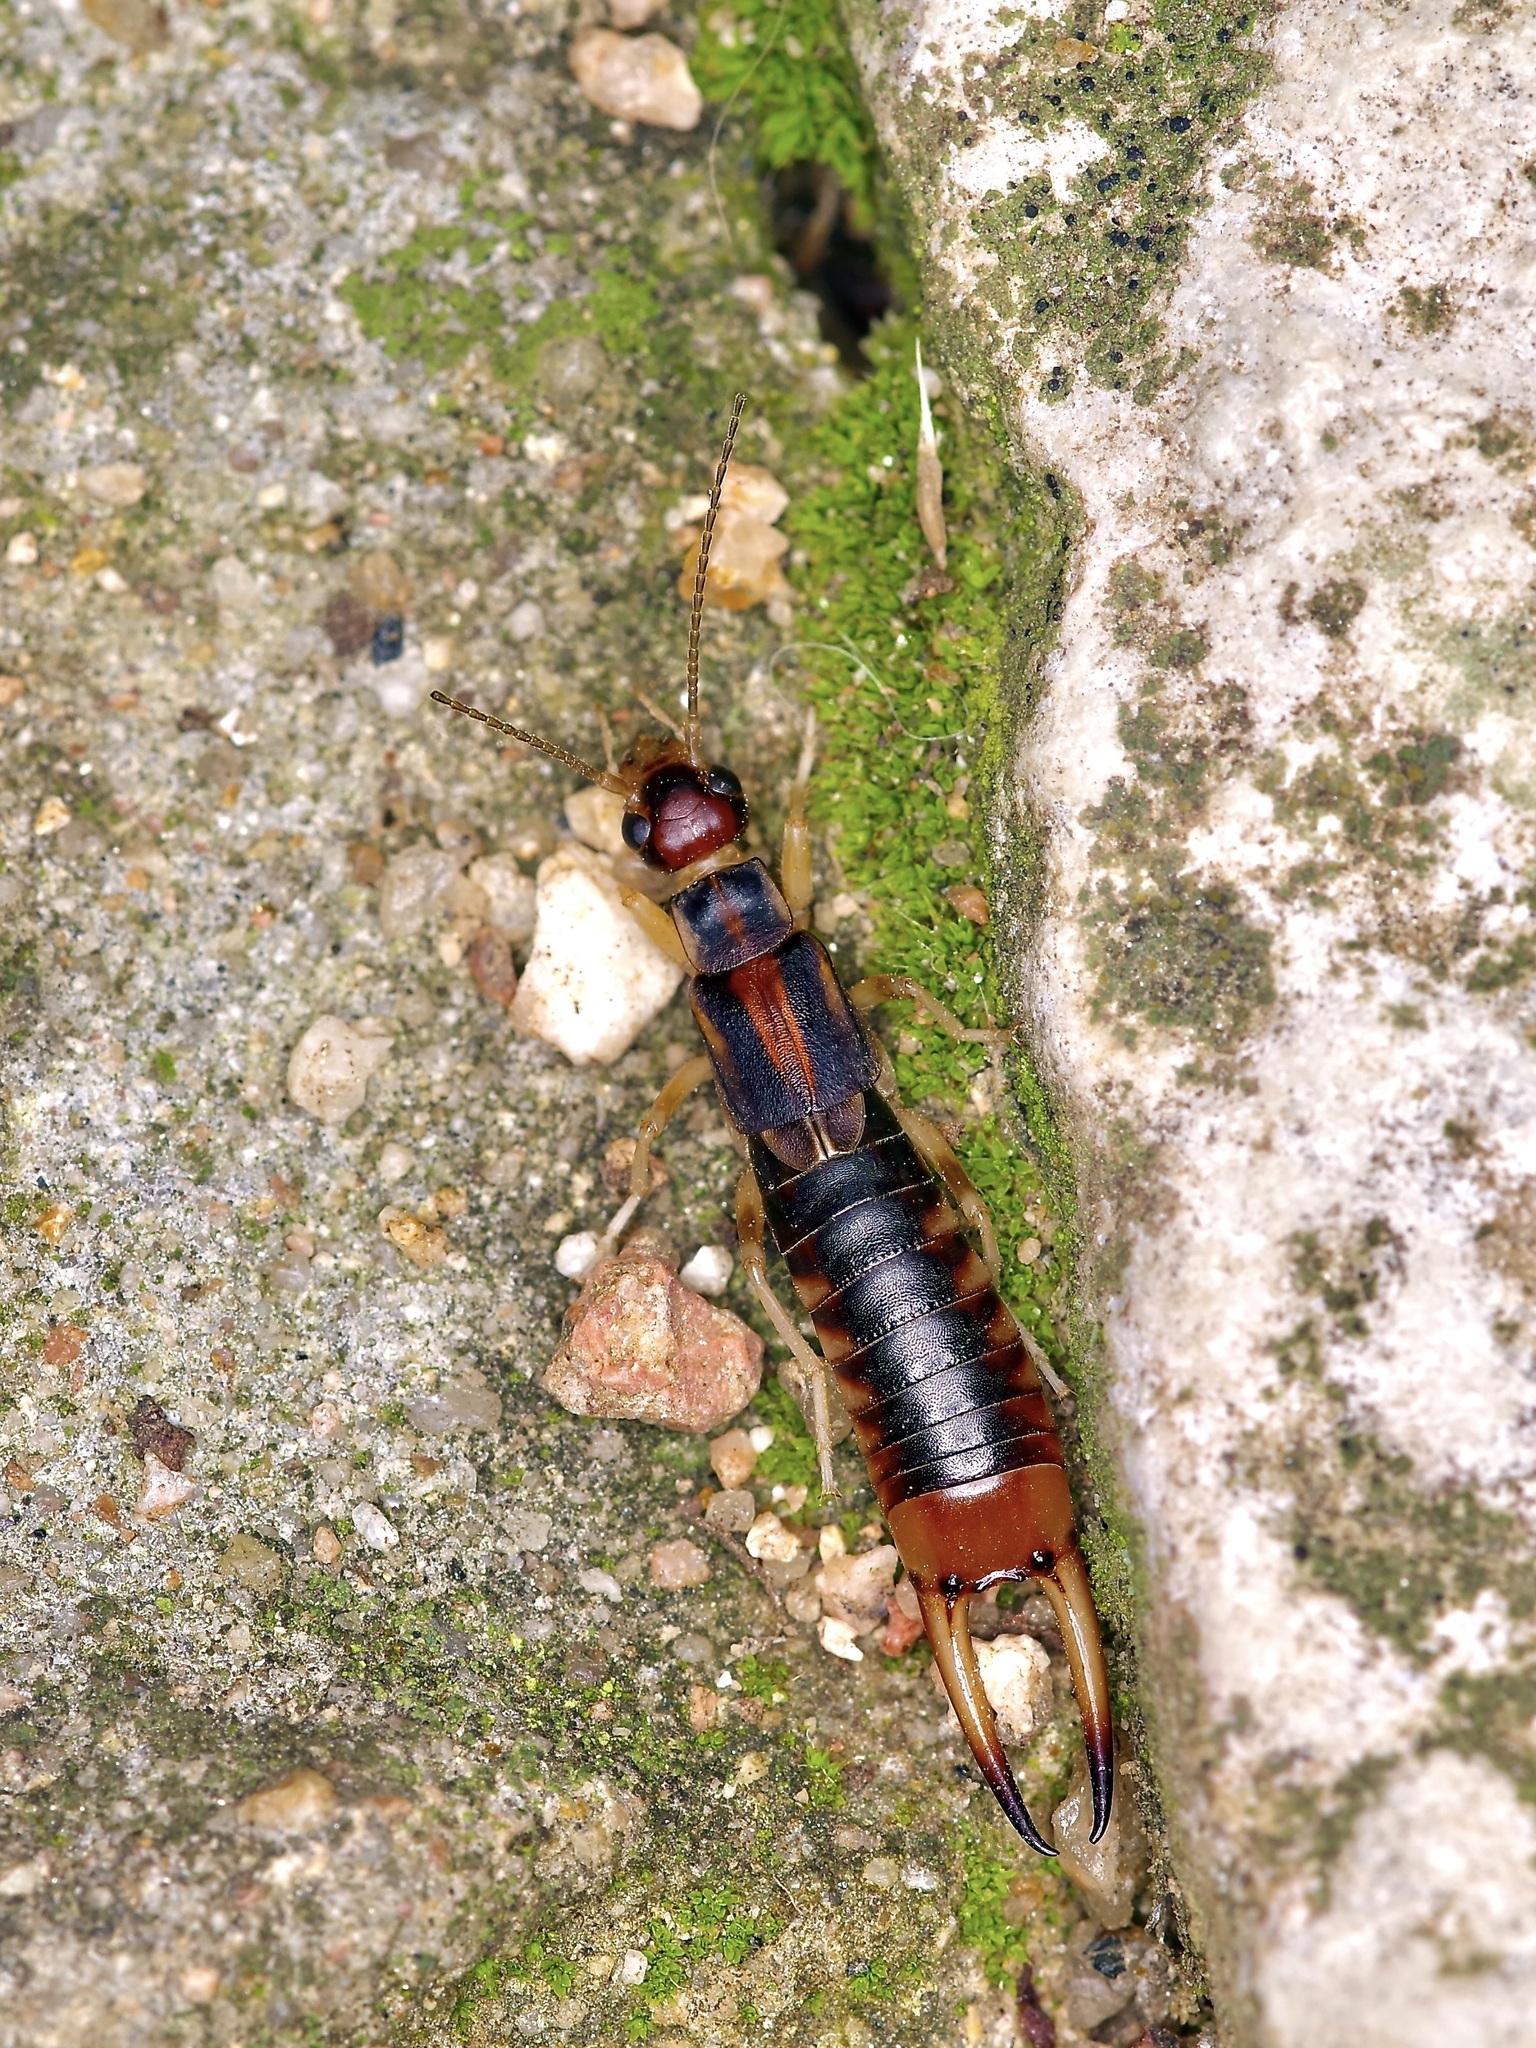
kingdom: Animalia
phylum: Arthropoda
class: Insecta
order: Dermaptera
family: Labiduridae
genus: Labidura
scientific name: Labidura riparia
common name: Striped earwig
